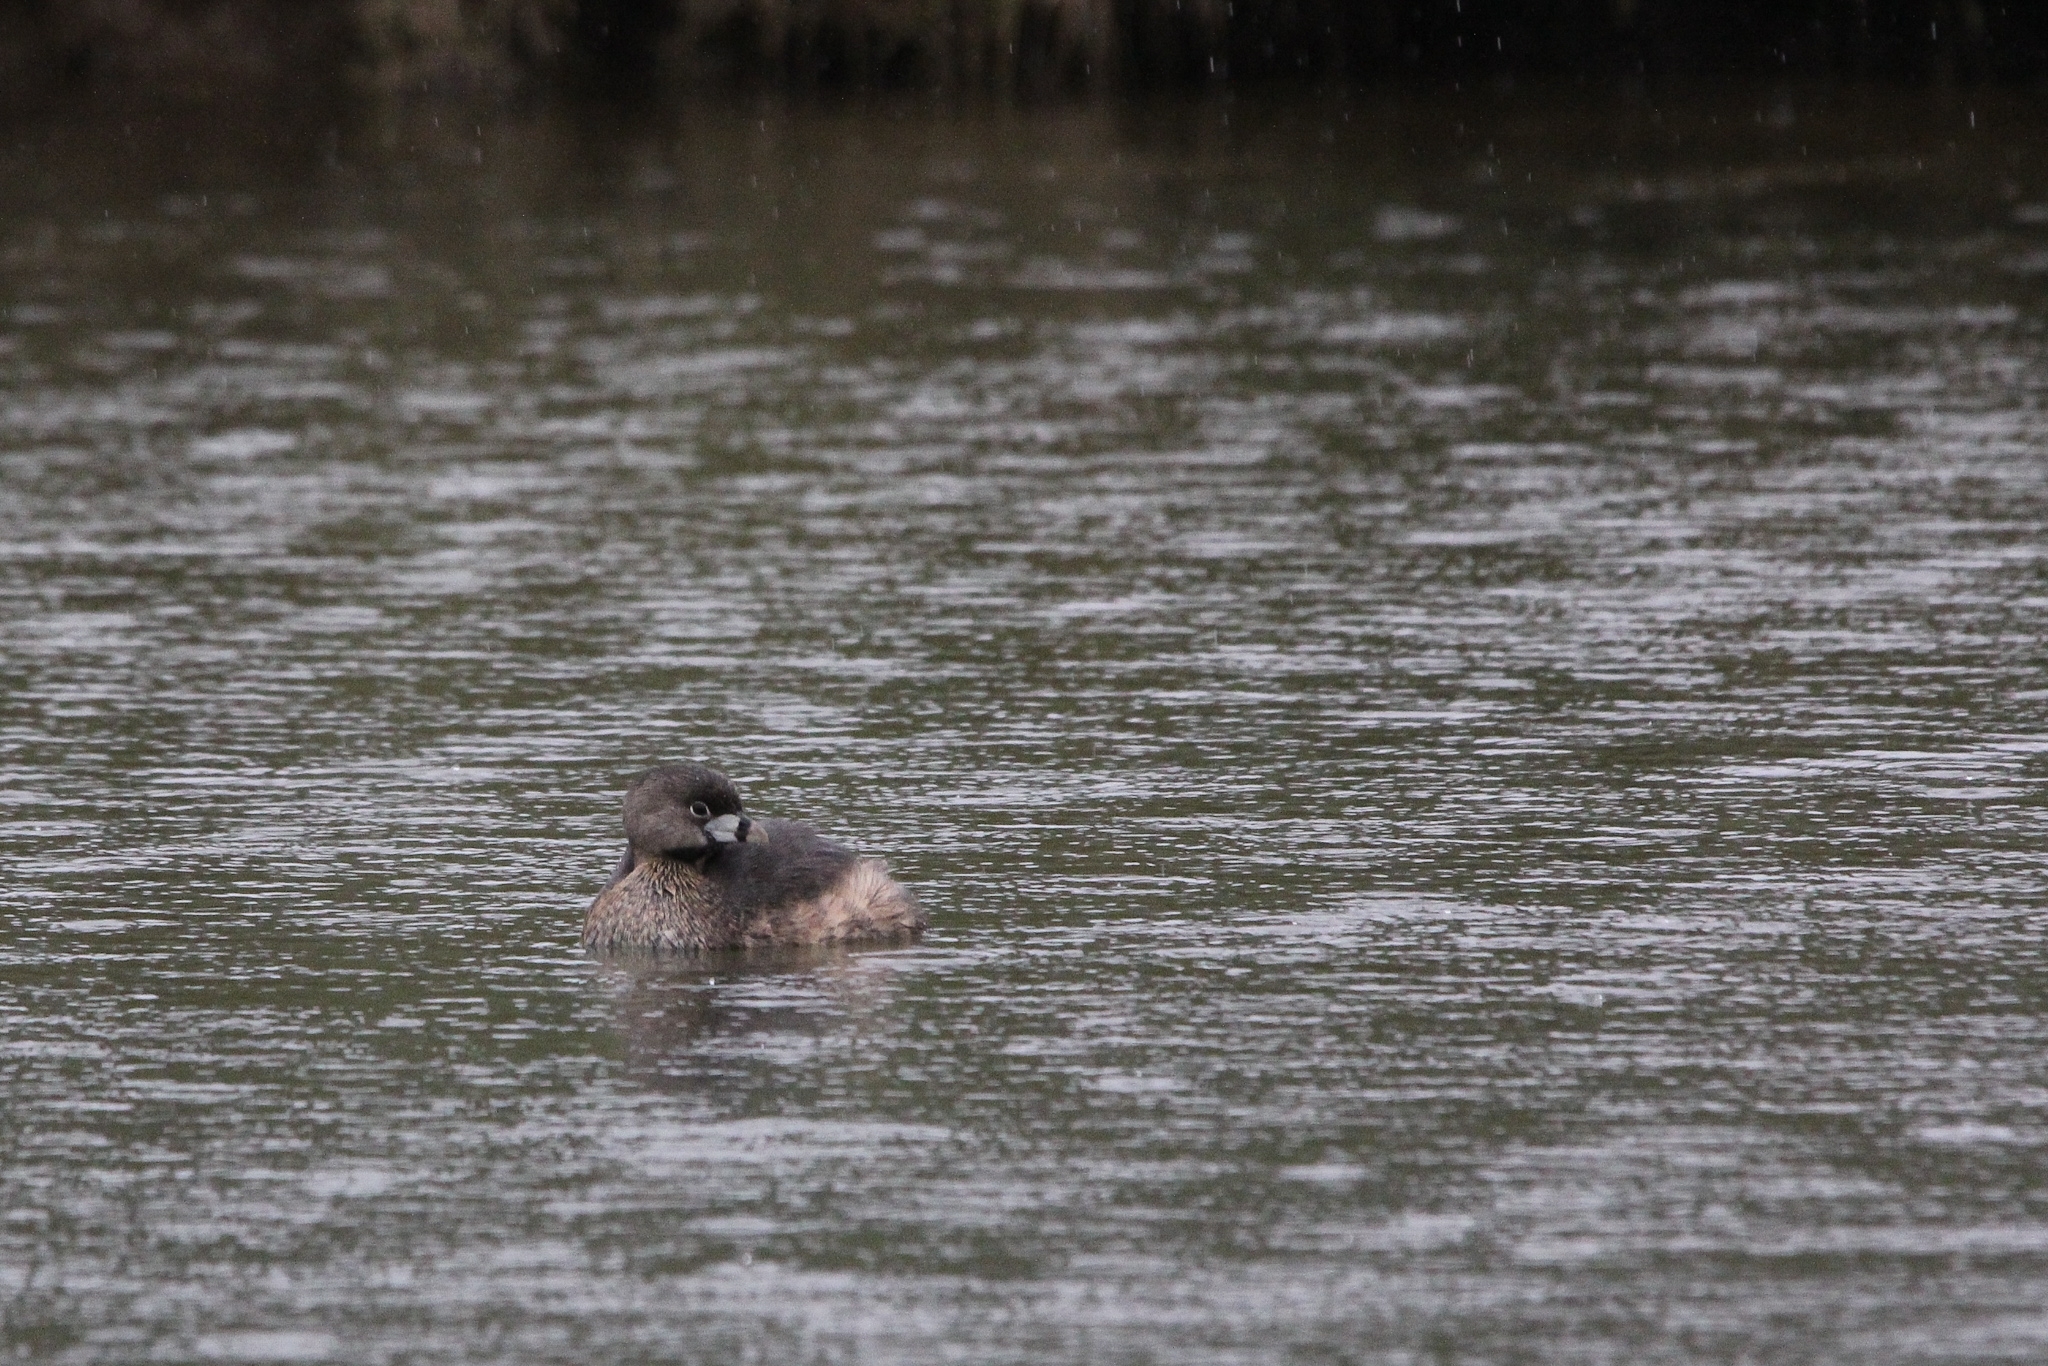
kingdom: Animalia
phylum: Chordata
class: Aves
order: Podicipediformes
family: Podicipedidae
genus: Podilymbus
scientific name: Podilymbus podiceps
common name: Pied-billed grebe
